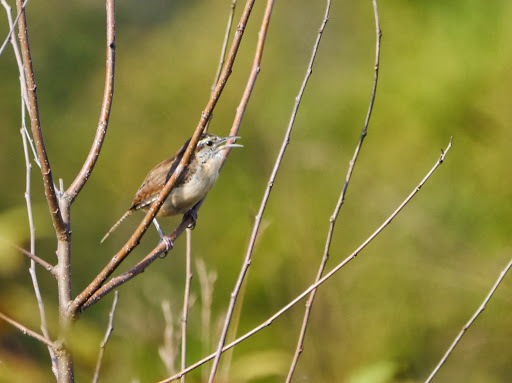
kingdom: Animalia
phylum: Chordata
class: Aves
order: Passeriformes
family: Troglodytidae
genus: Thryothorus
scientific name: Thryothorus ludovicianus
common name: Carolina wren
